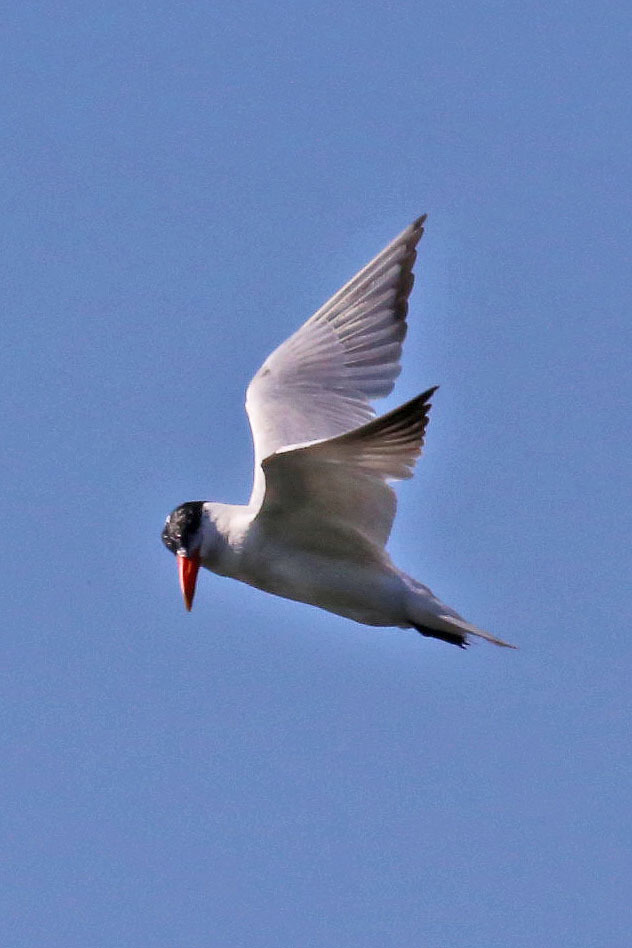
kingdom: Animalia
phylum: Chordata
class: Aves
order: Charadriiformes
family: Laridae
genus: Hydroprogne
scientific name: Hydroprogne caspia
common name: Caspian tern
